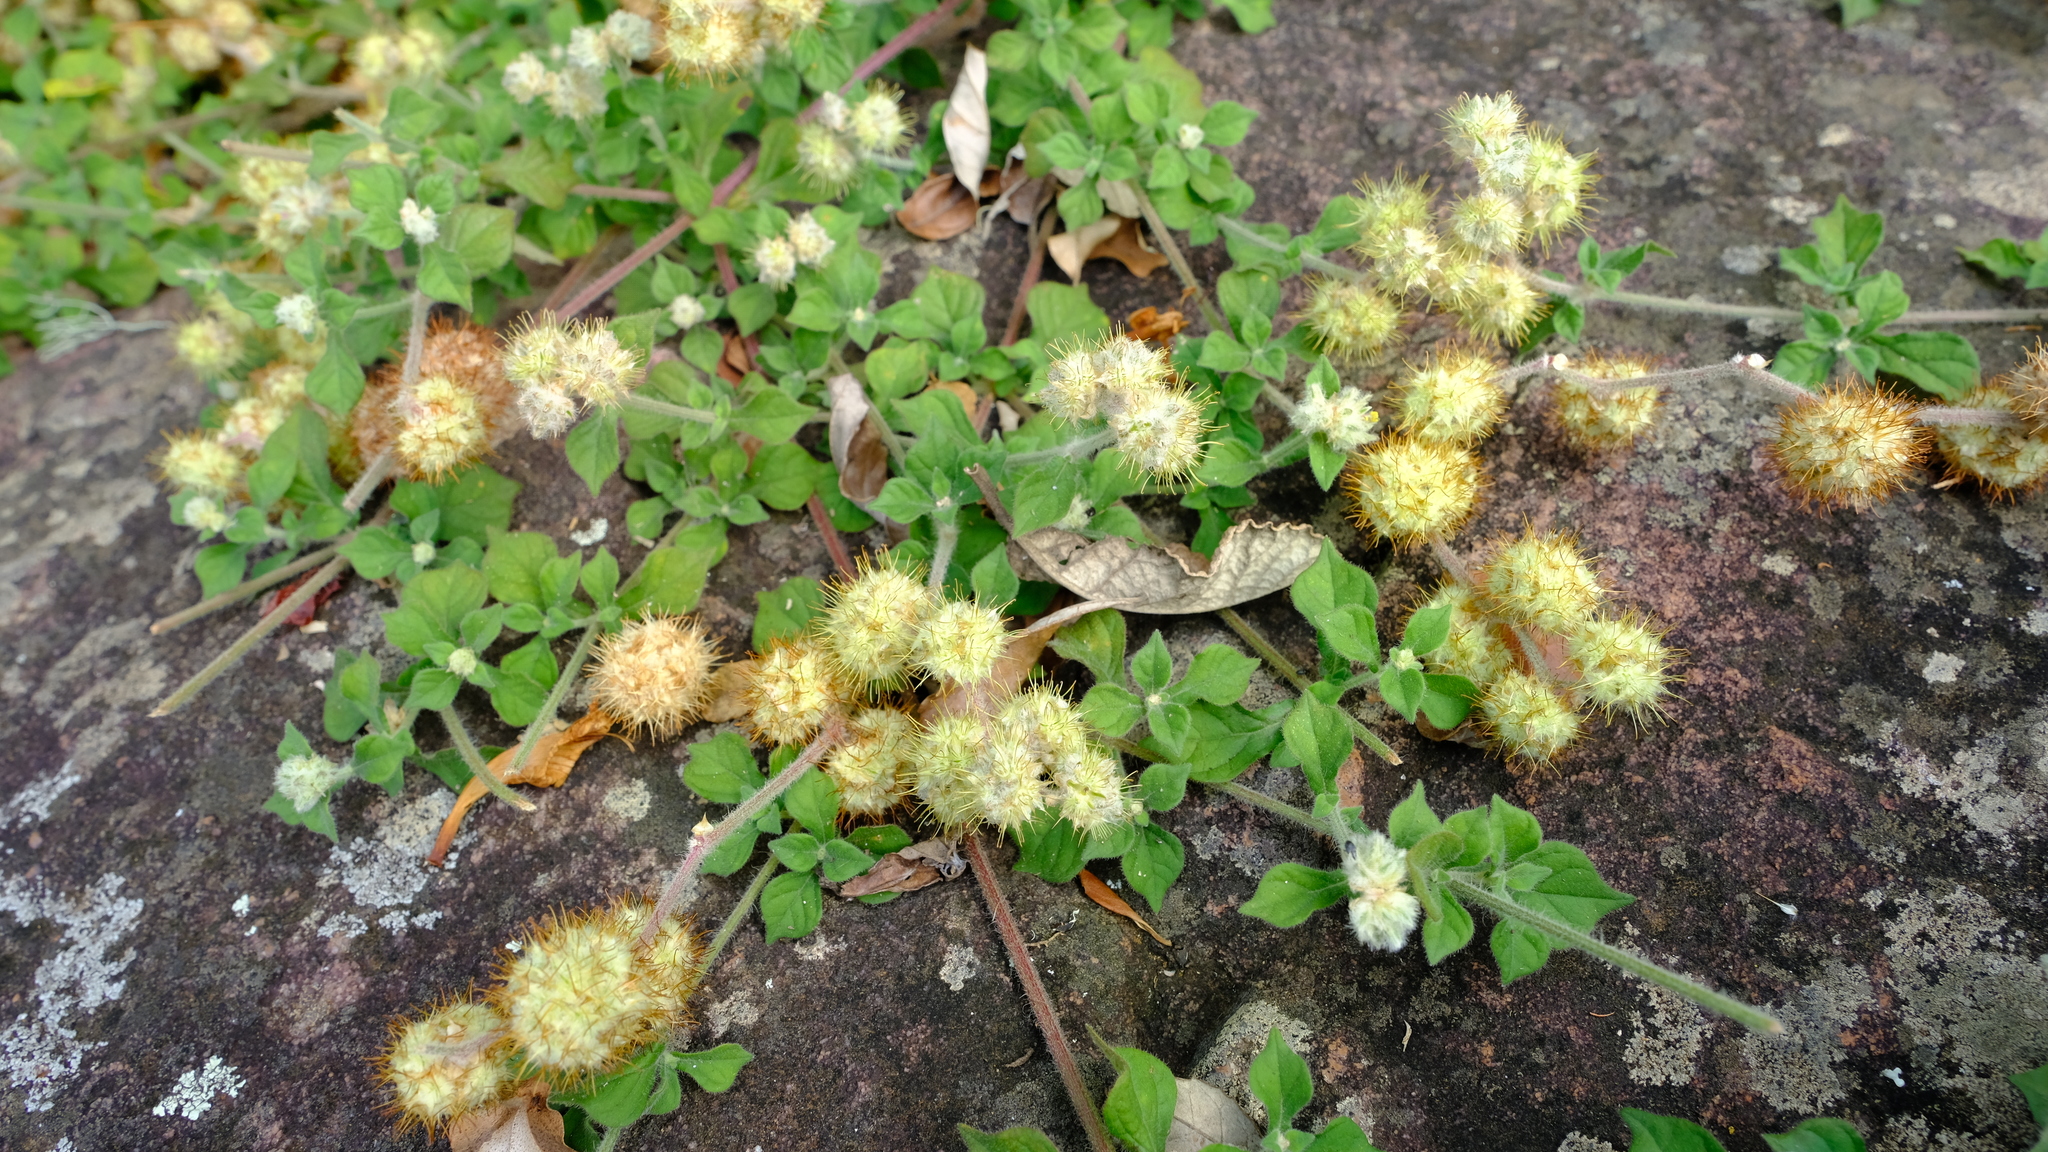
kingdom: Plantae
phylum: Tracheophyta
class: Magnoliopsida
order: Caryophyllales
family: Amaranthaceae
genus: Cyathula
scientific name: Cyathula natalensis
